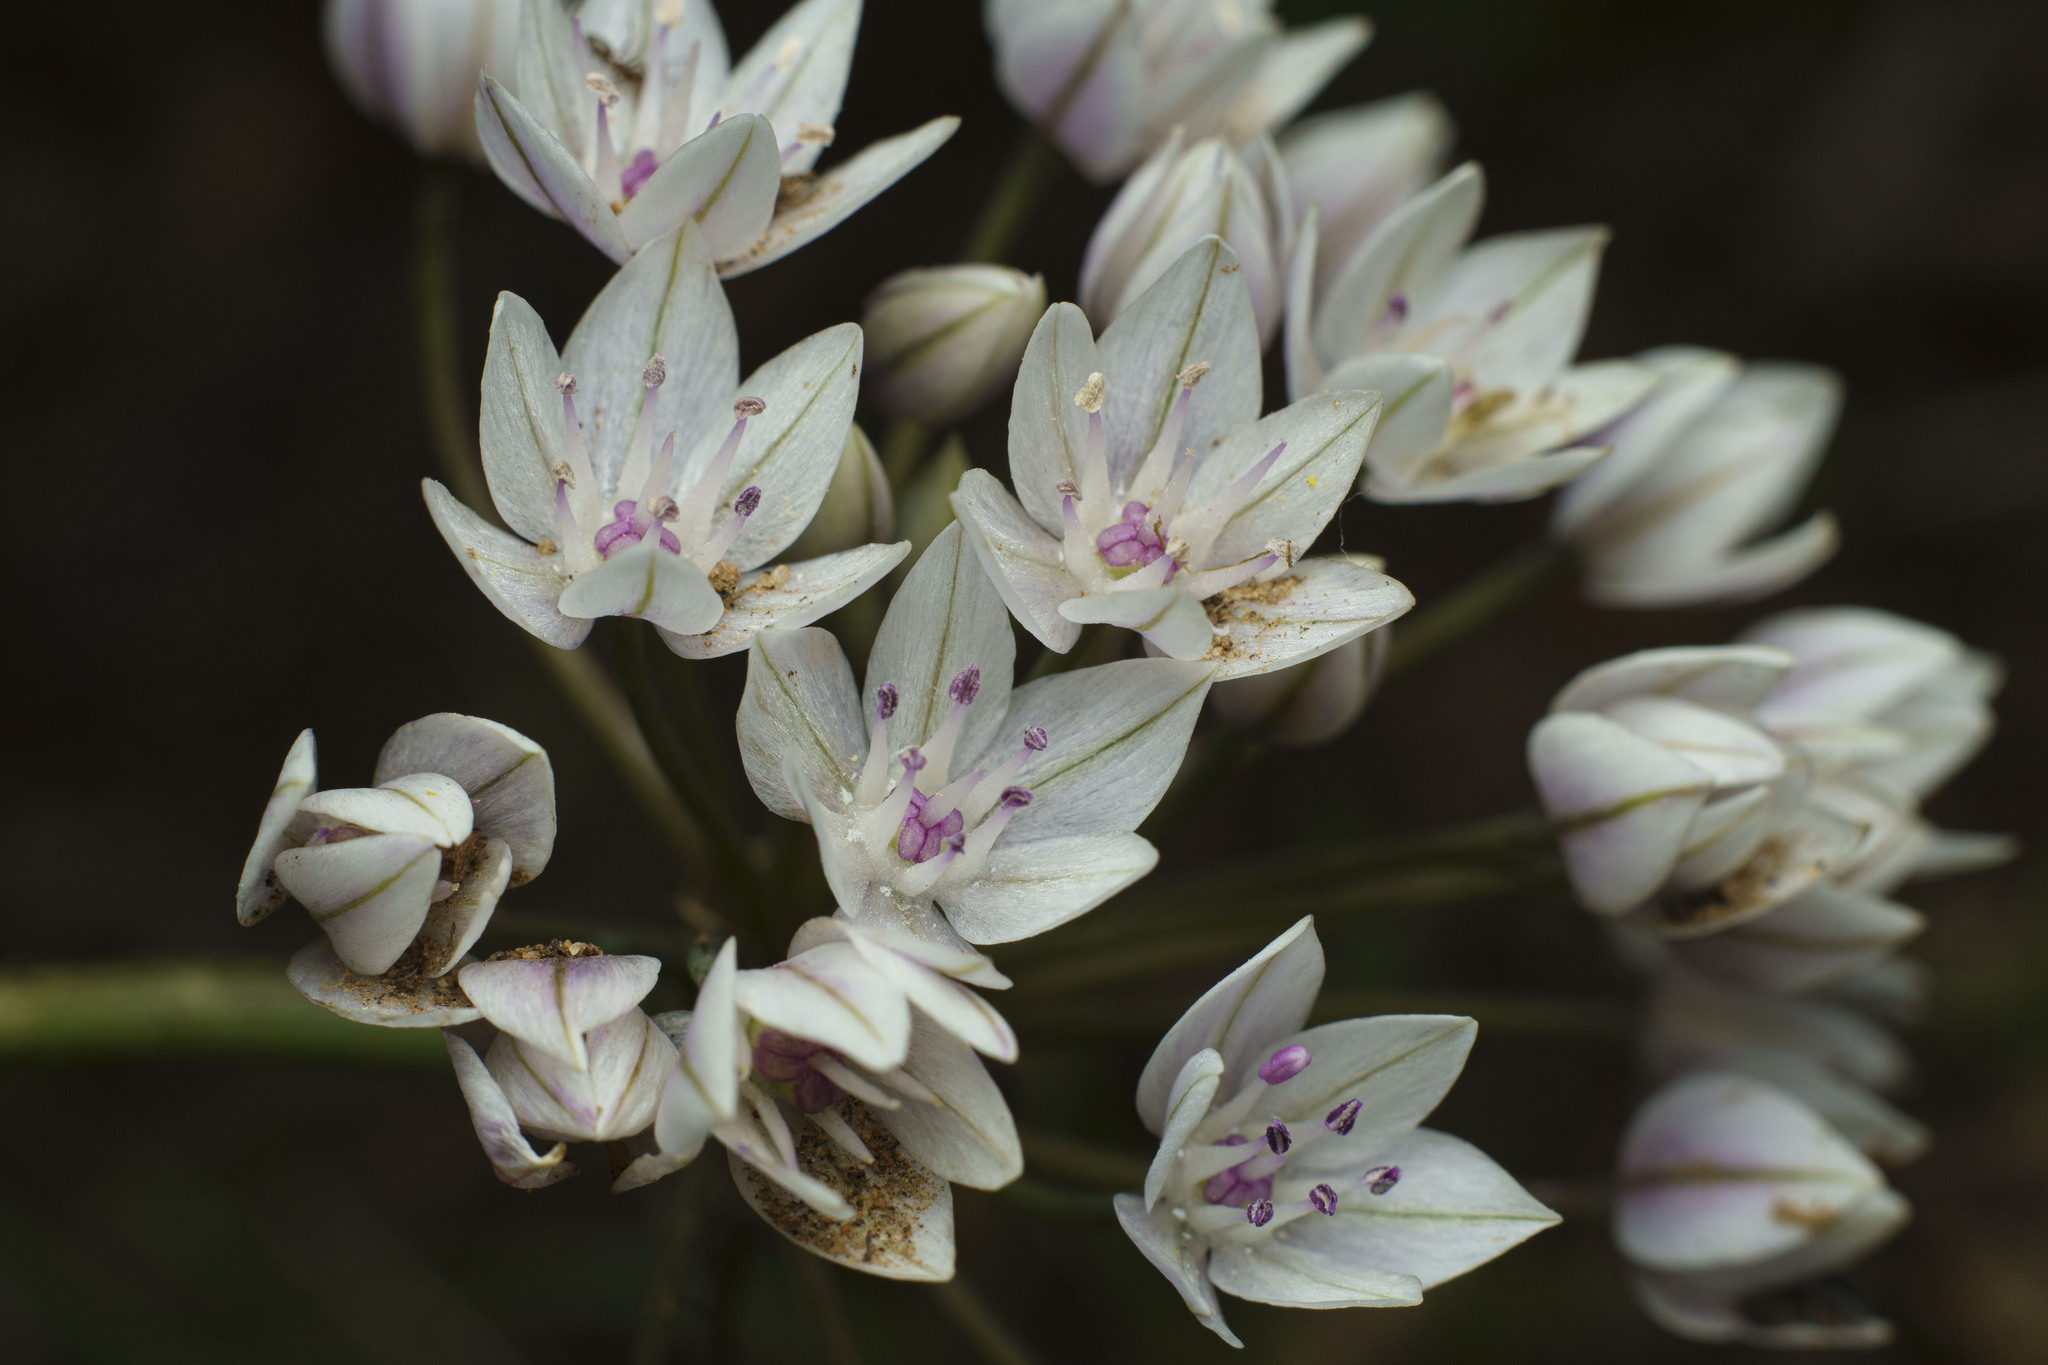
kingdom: Plantae
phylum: Tracheophyta
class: Liliopsida
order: Asparagales
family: Amaryllidaceae
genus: Allium
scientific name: Allium praecox
